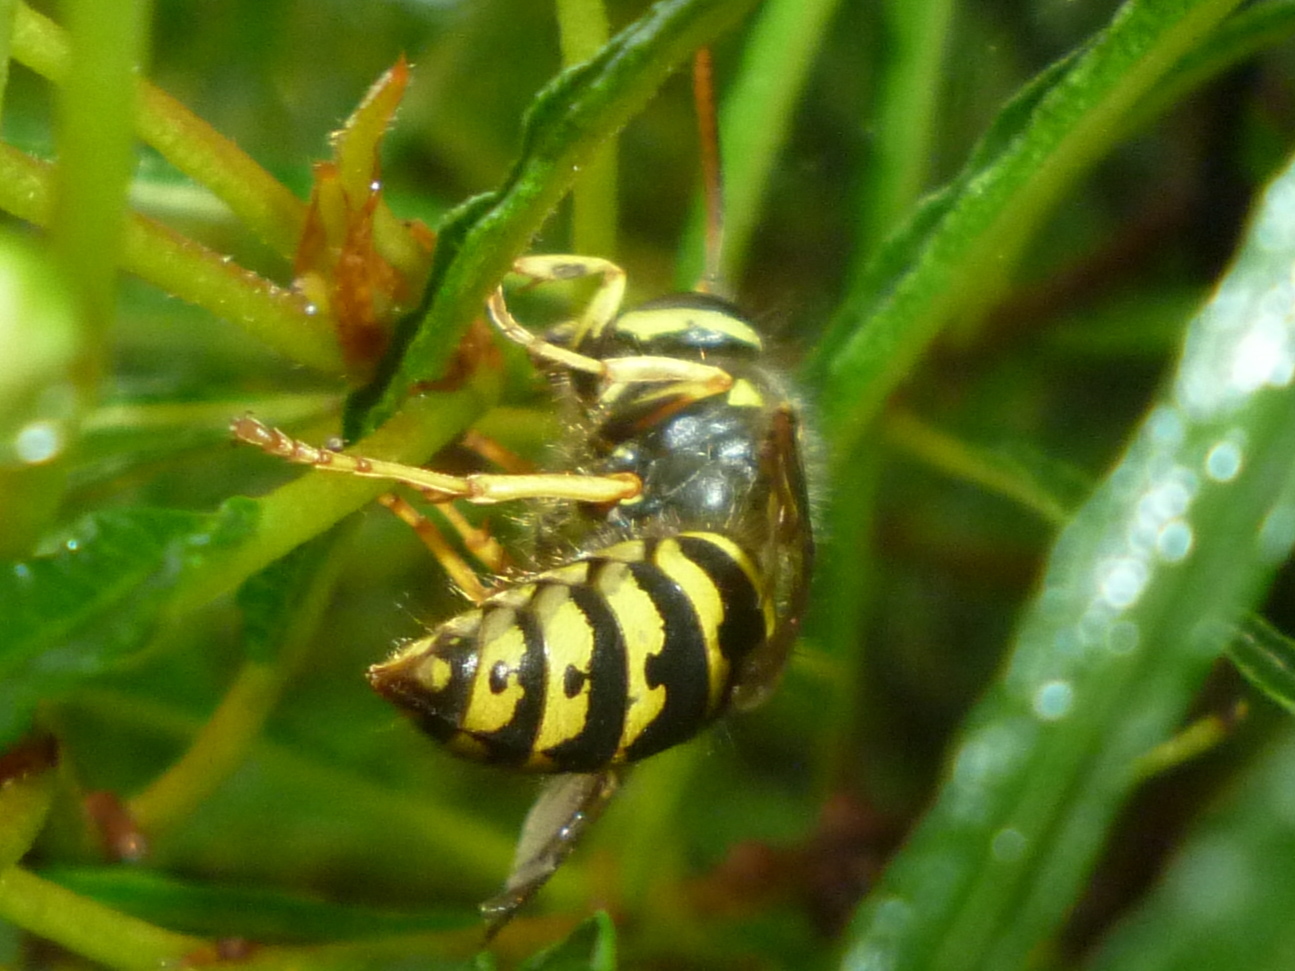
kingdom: Animalia
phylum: Arthropoda
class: Insecta
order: Hymenoptera
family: Vespidae
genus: Dolichovespula
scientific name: Dolichovespula arenaria
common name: Aerial yellowjacket
